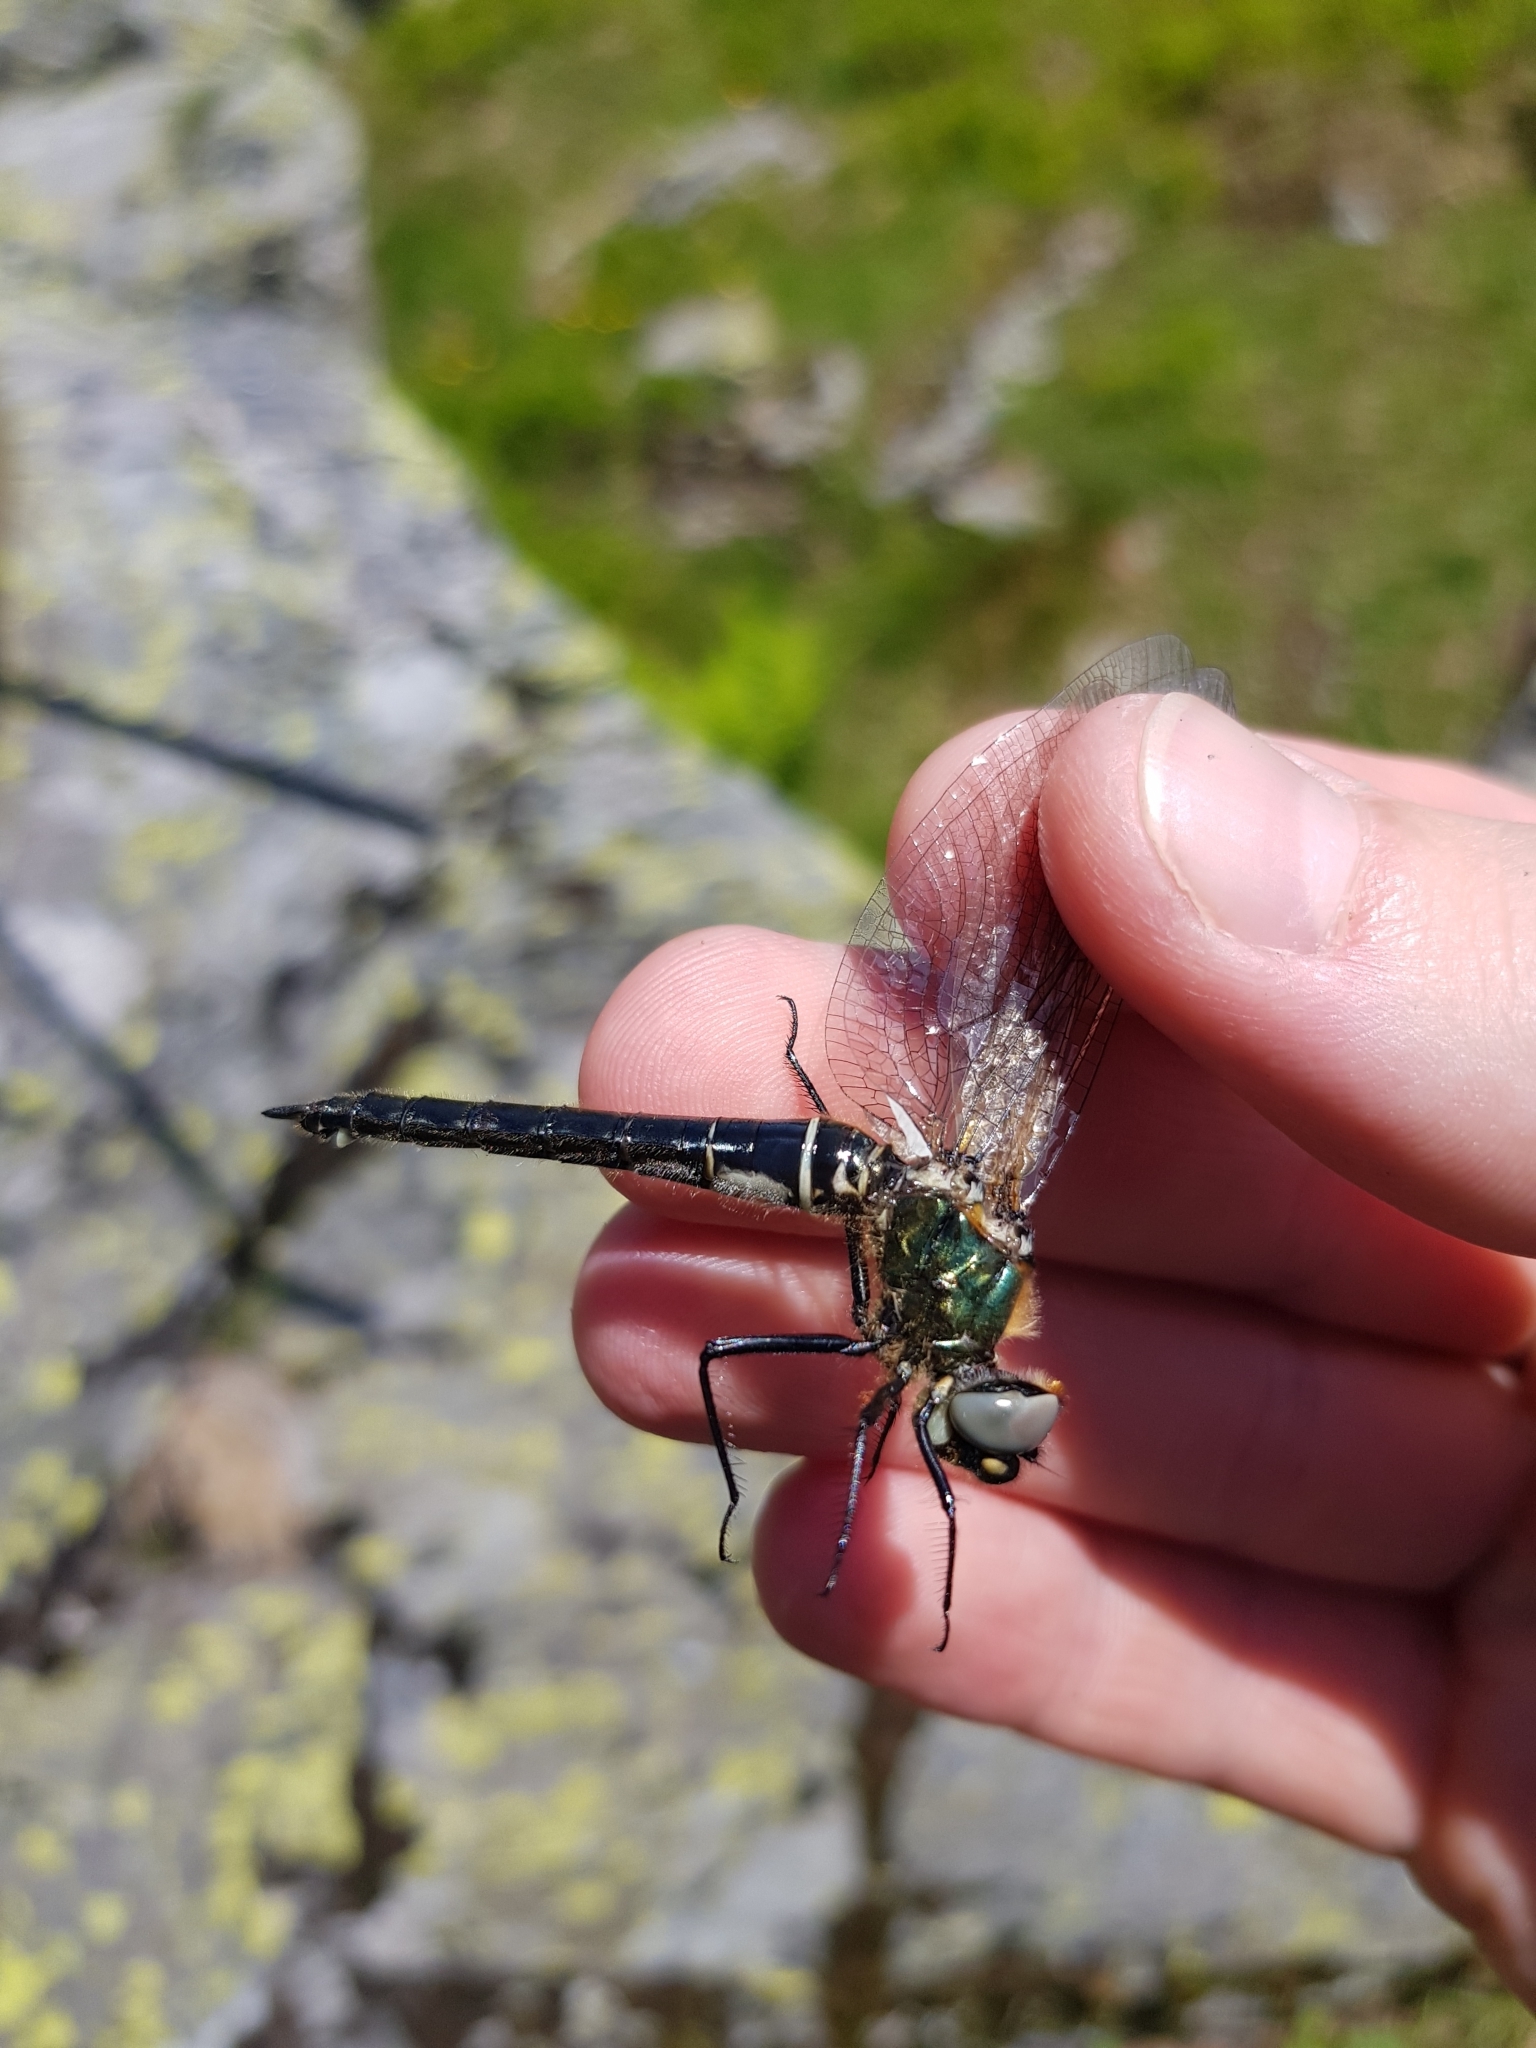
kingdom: Animalia
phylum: Arthropoda
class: Insecta
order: Odonata
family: Corduliidae
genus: Somatochlora
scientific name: Somatochlora alpestris
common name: Alpine emerald
